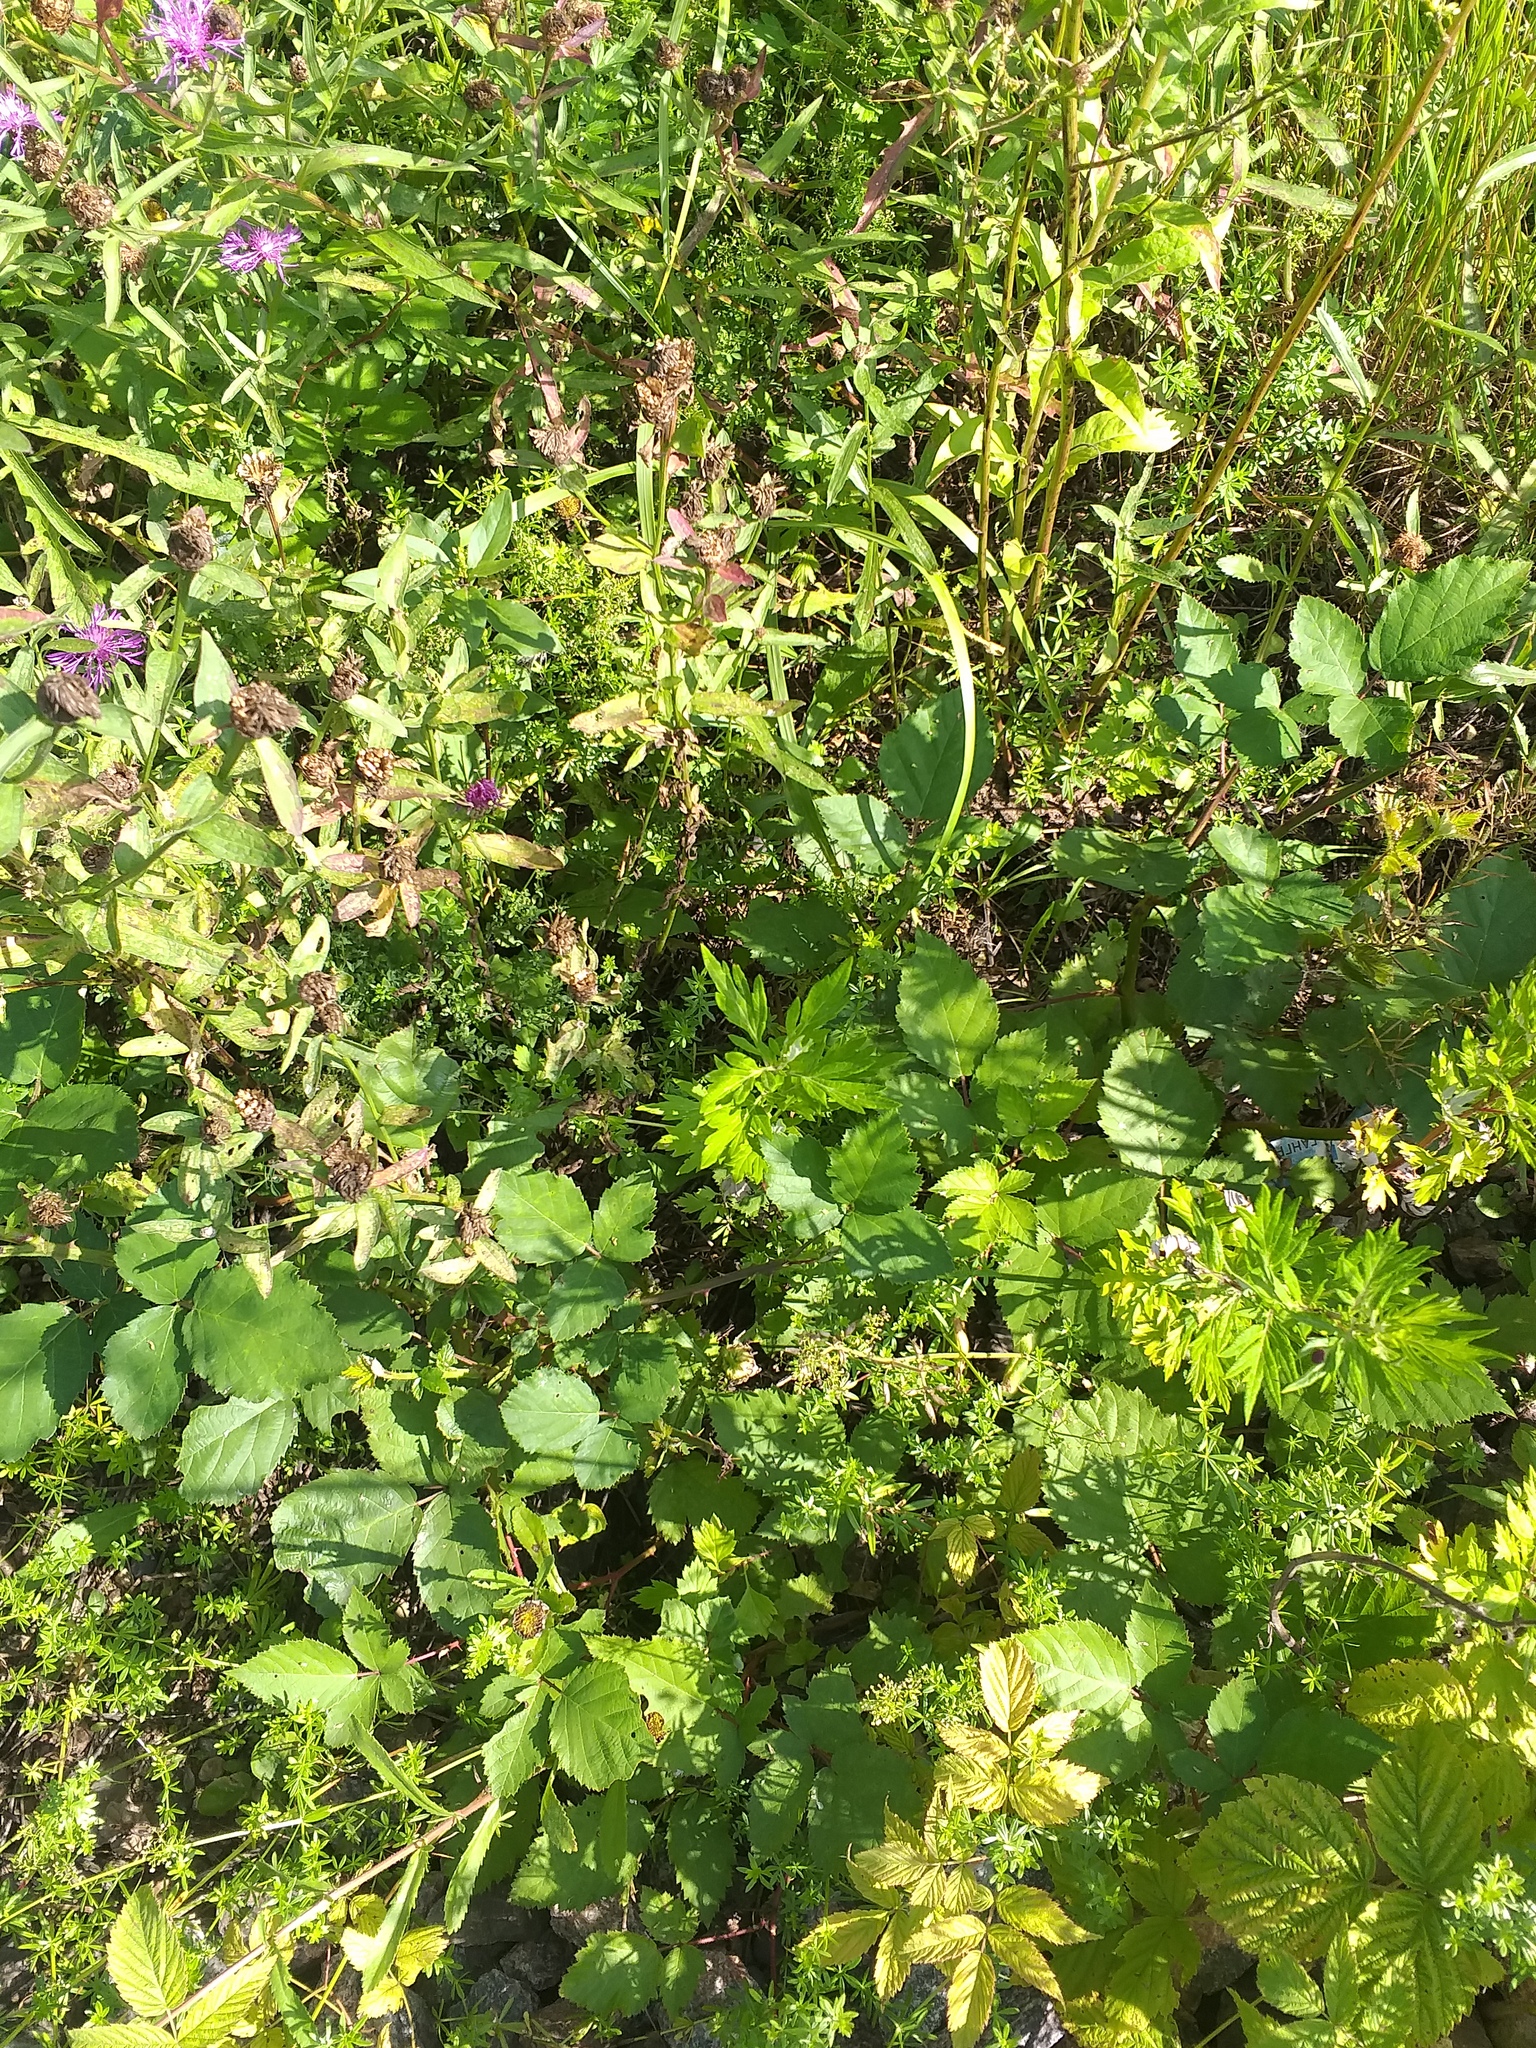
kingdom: Plantae
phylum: Tracheophyta
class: Magnoliopsida
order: Rosales
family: Rosaceae
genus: Rubus
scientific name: Rubus procerus
